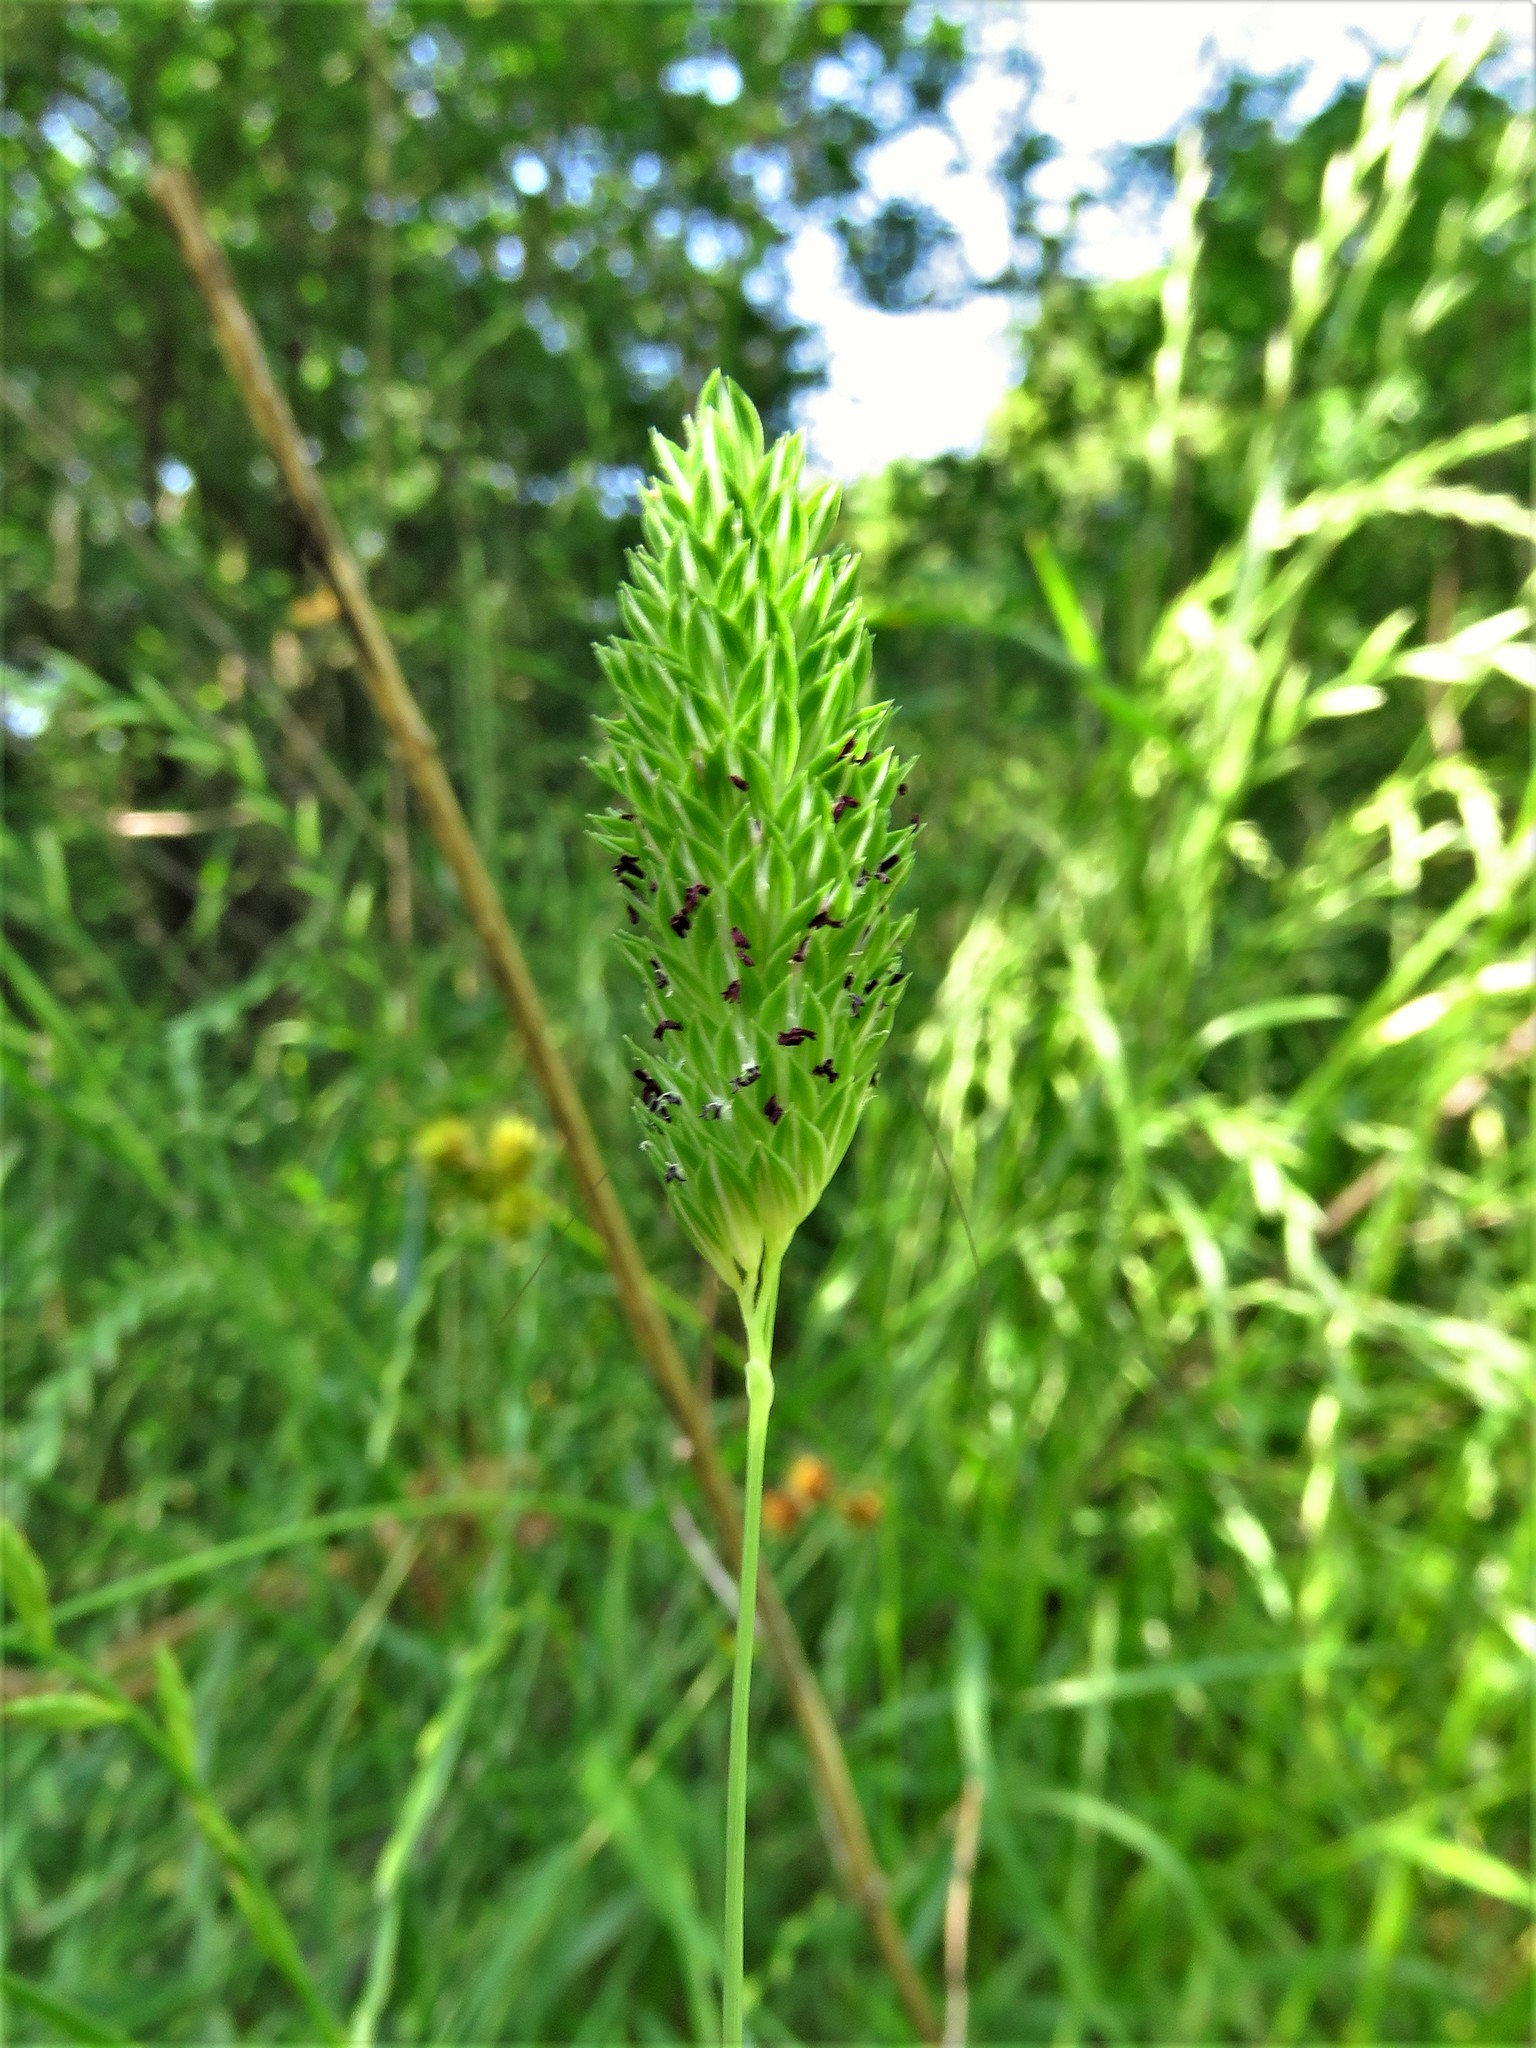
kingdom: Plantae
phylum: Tracheophyta
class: Liliopsida
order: Poales
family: Poaceae
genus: Phalaris
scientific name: Phalaris caroliniana
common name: May grass
